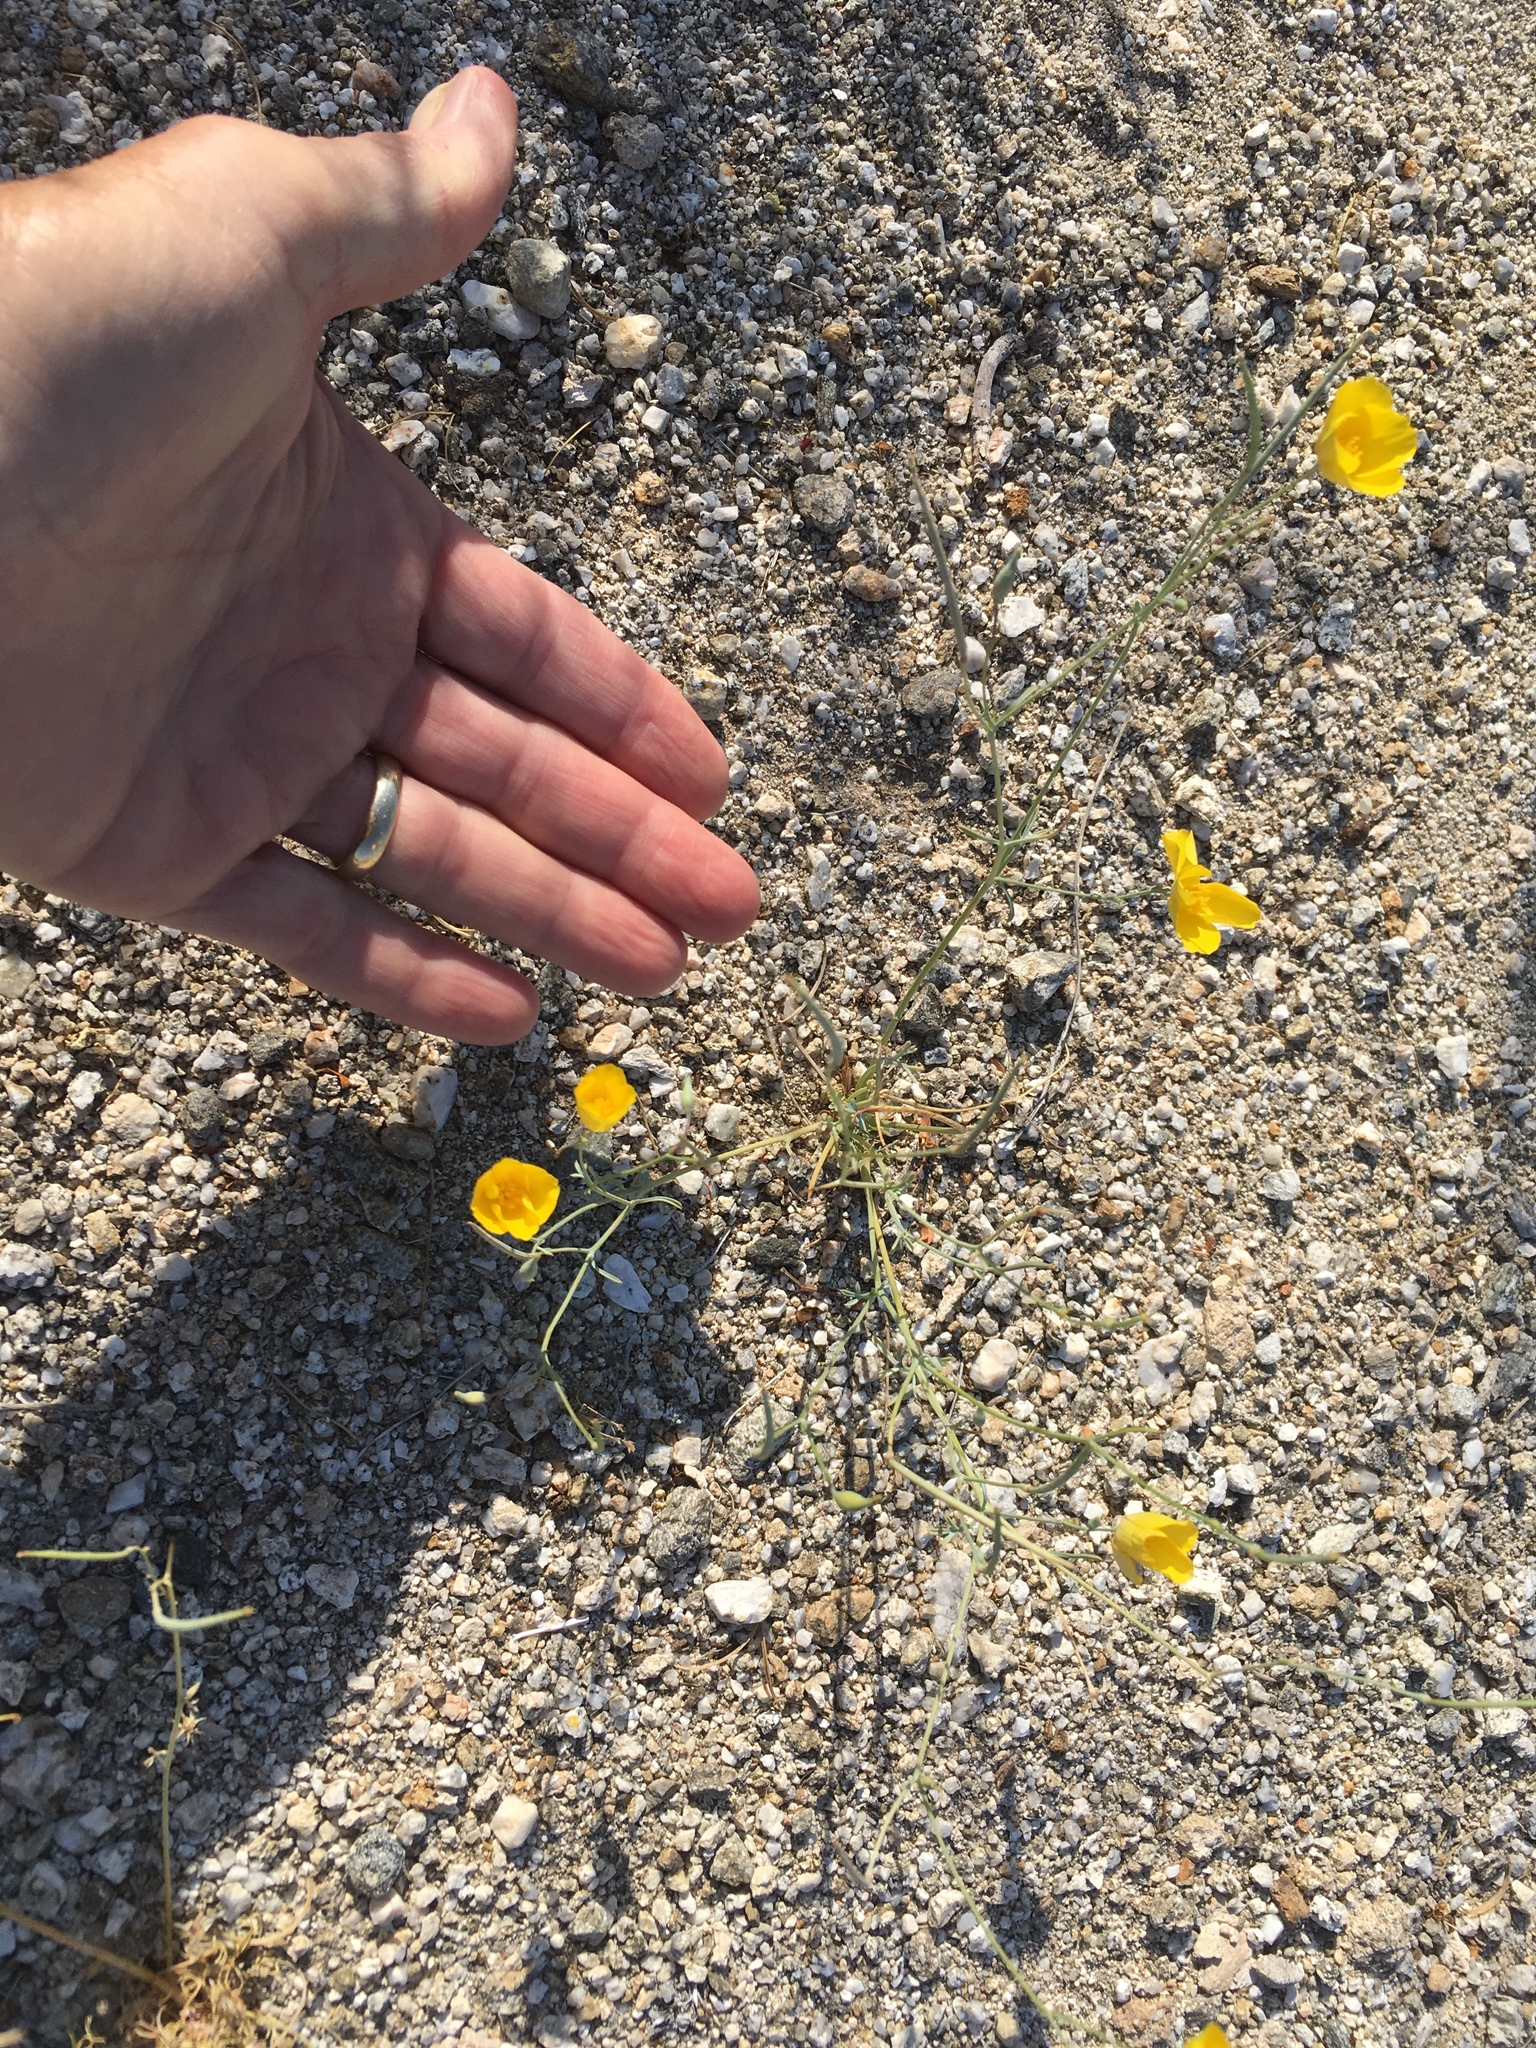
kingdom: Plantae
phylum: Tracheophyta
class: Magnoliopsida
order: Ranunculales
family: Papaveraceae
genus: Eschscholzia
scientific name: Eschscholzia parishii
